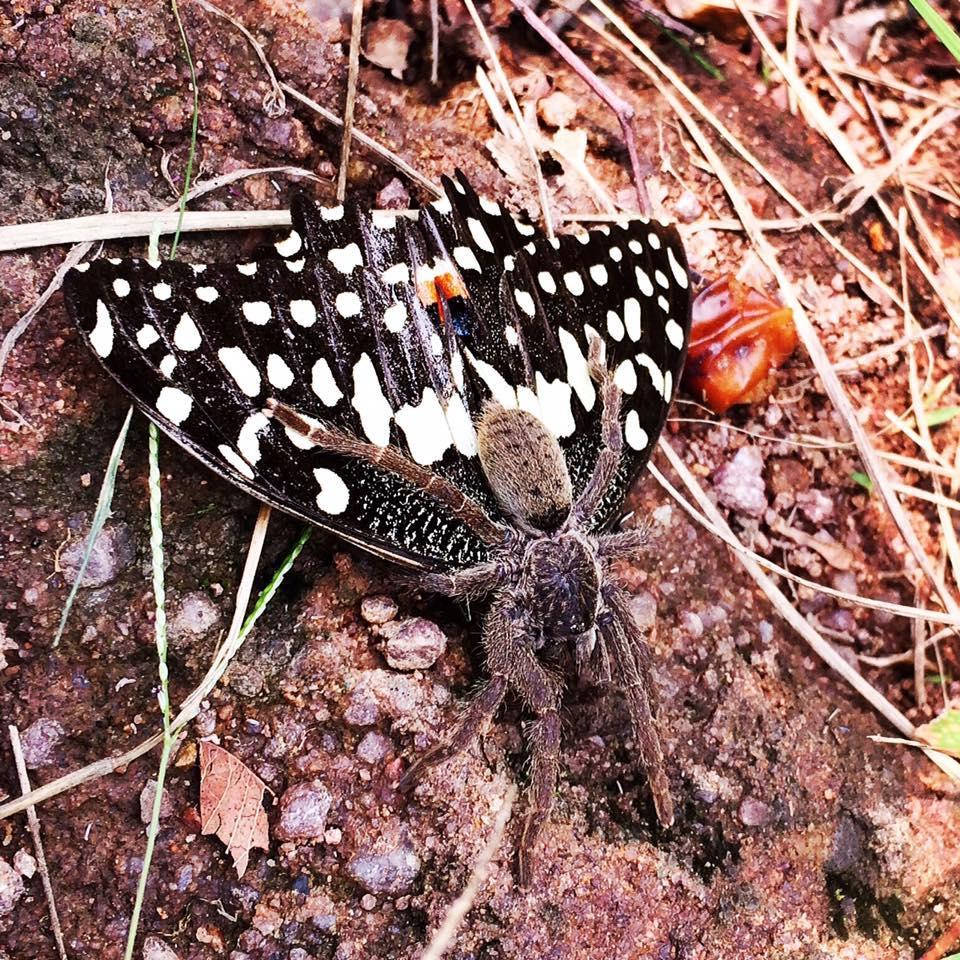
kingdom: Animalia
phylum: Arthropoda
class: Insecta
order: Lepidoptera
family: Papilionidae
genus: Papilio
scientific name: Papilio demodocus
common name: Christmas butterfly
